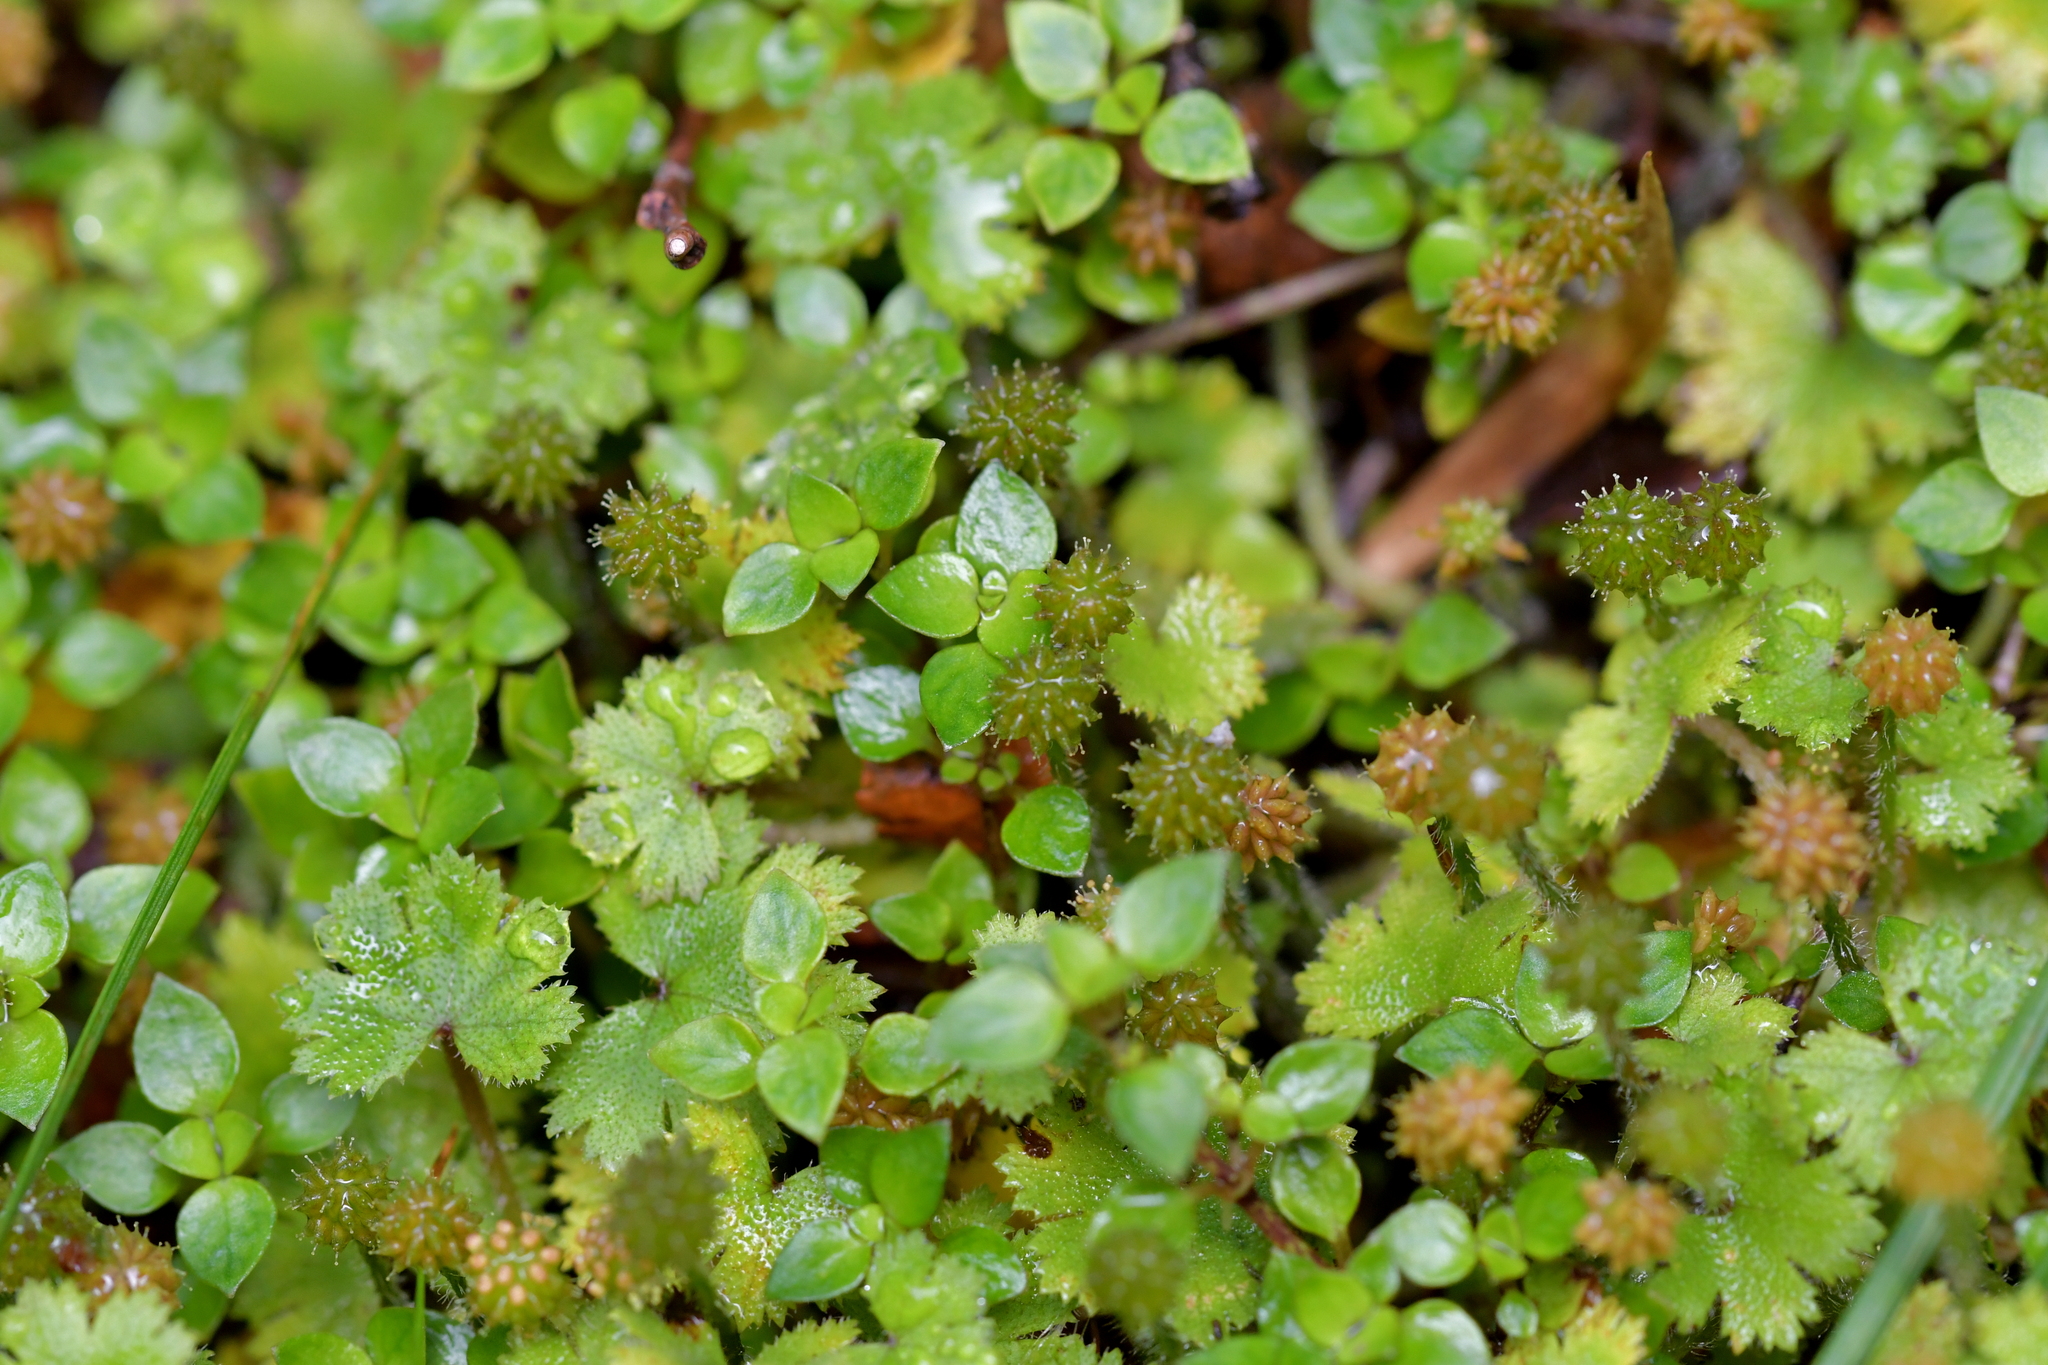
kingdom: Plantae
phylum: Tracheophyta
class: Magnoliopsida
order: Apiales
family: Araliaceae
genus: Hydrocotyle
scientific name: Hydrocotyle moschata
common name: Hairy pennywort
